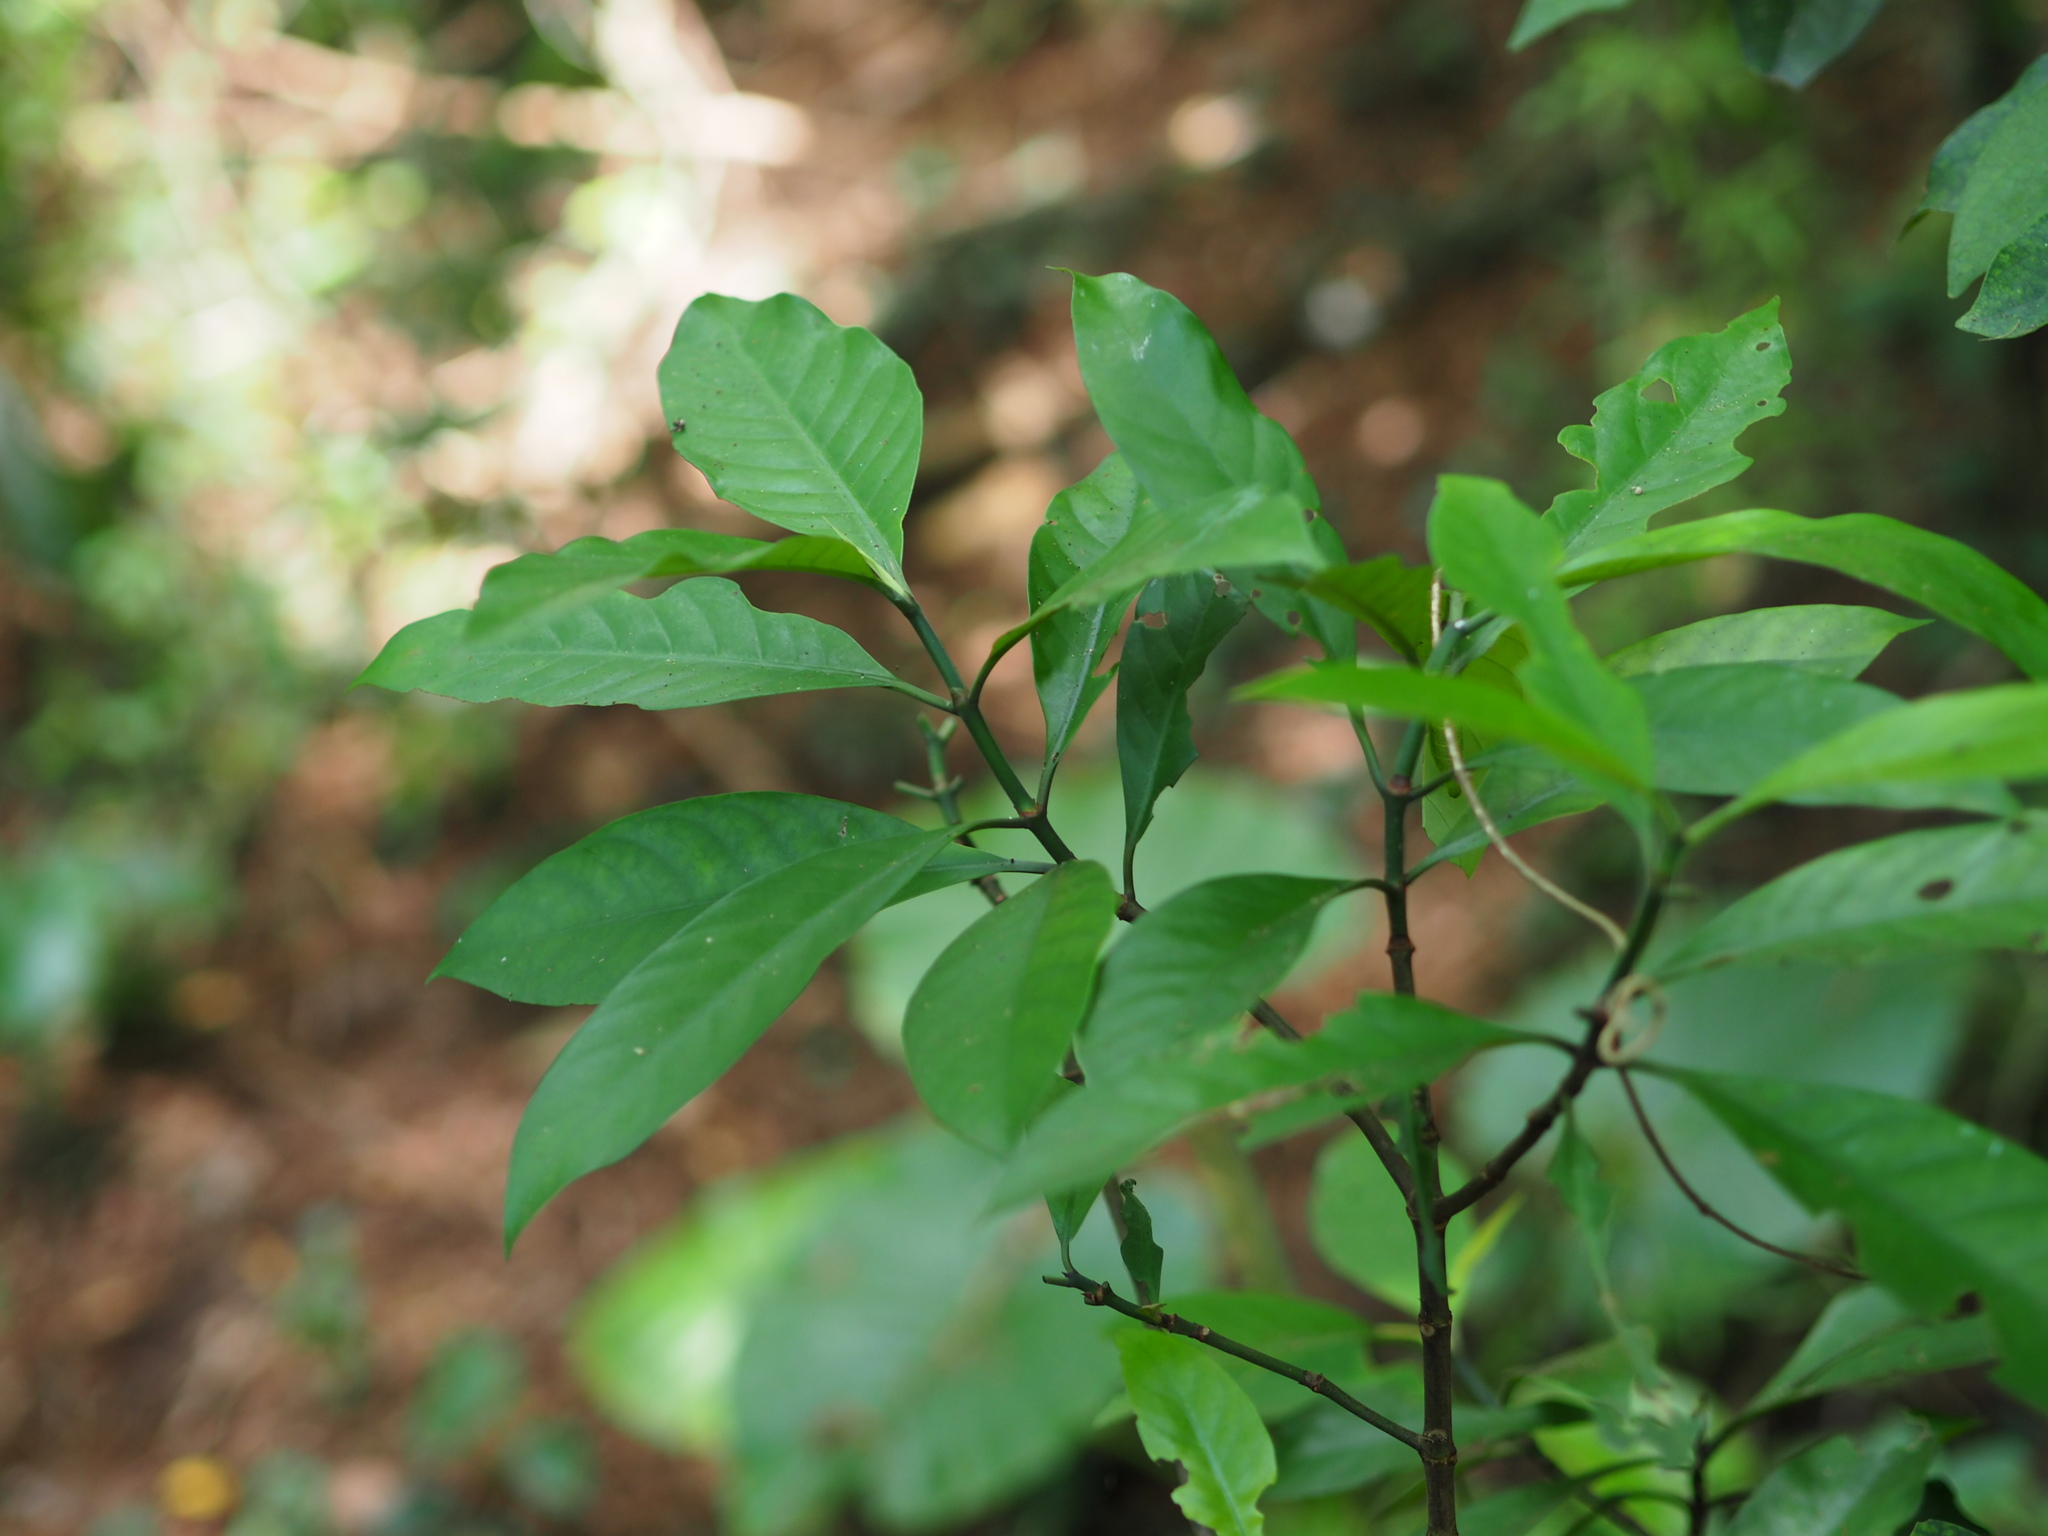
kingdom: Plantae
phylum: Tracheophyta
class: Magnoliopsida
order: Gentianales
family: Rubiaceae
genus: Psychotria
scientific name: Psychotria asiatica
